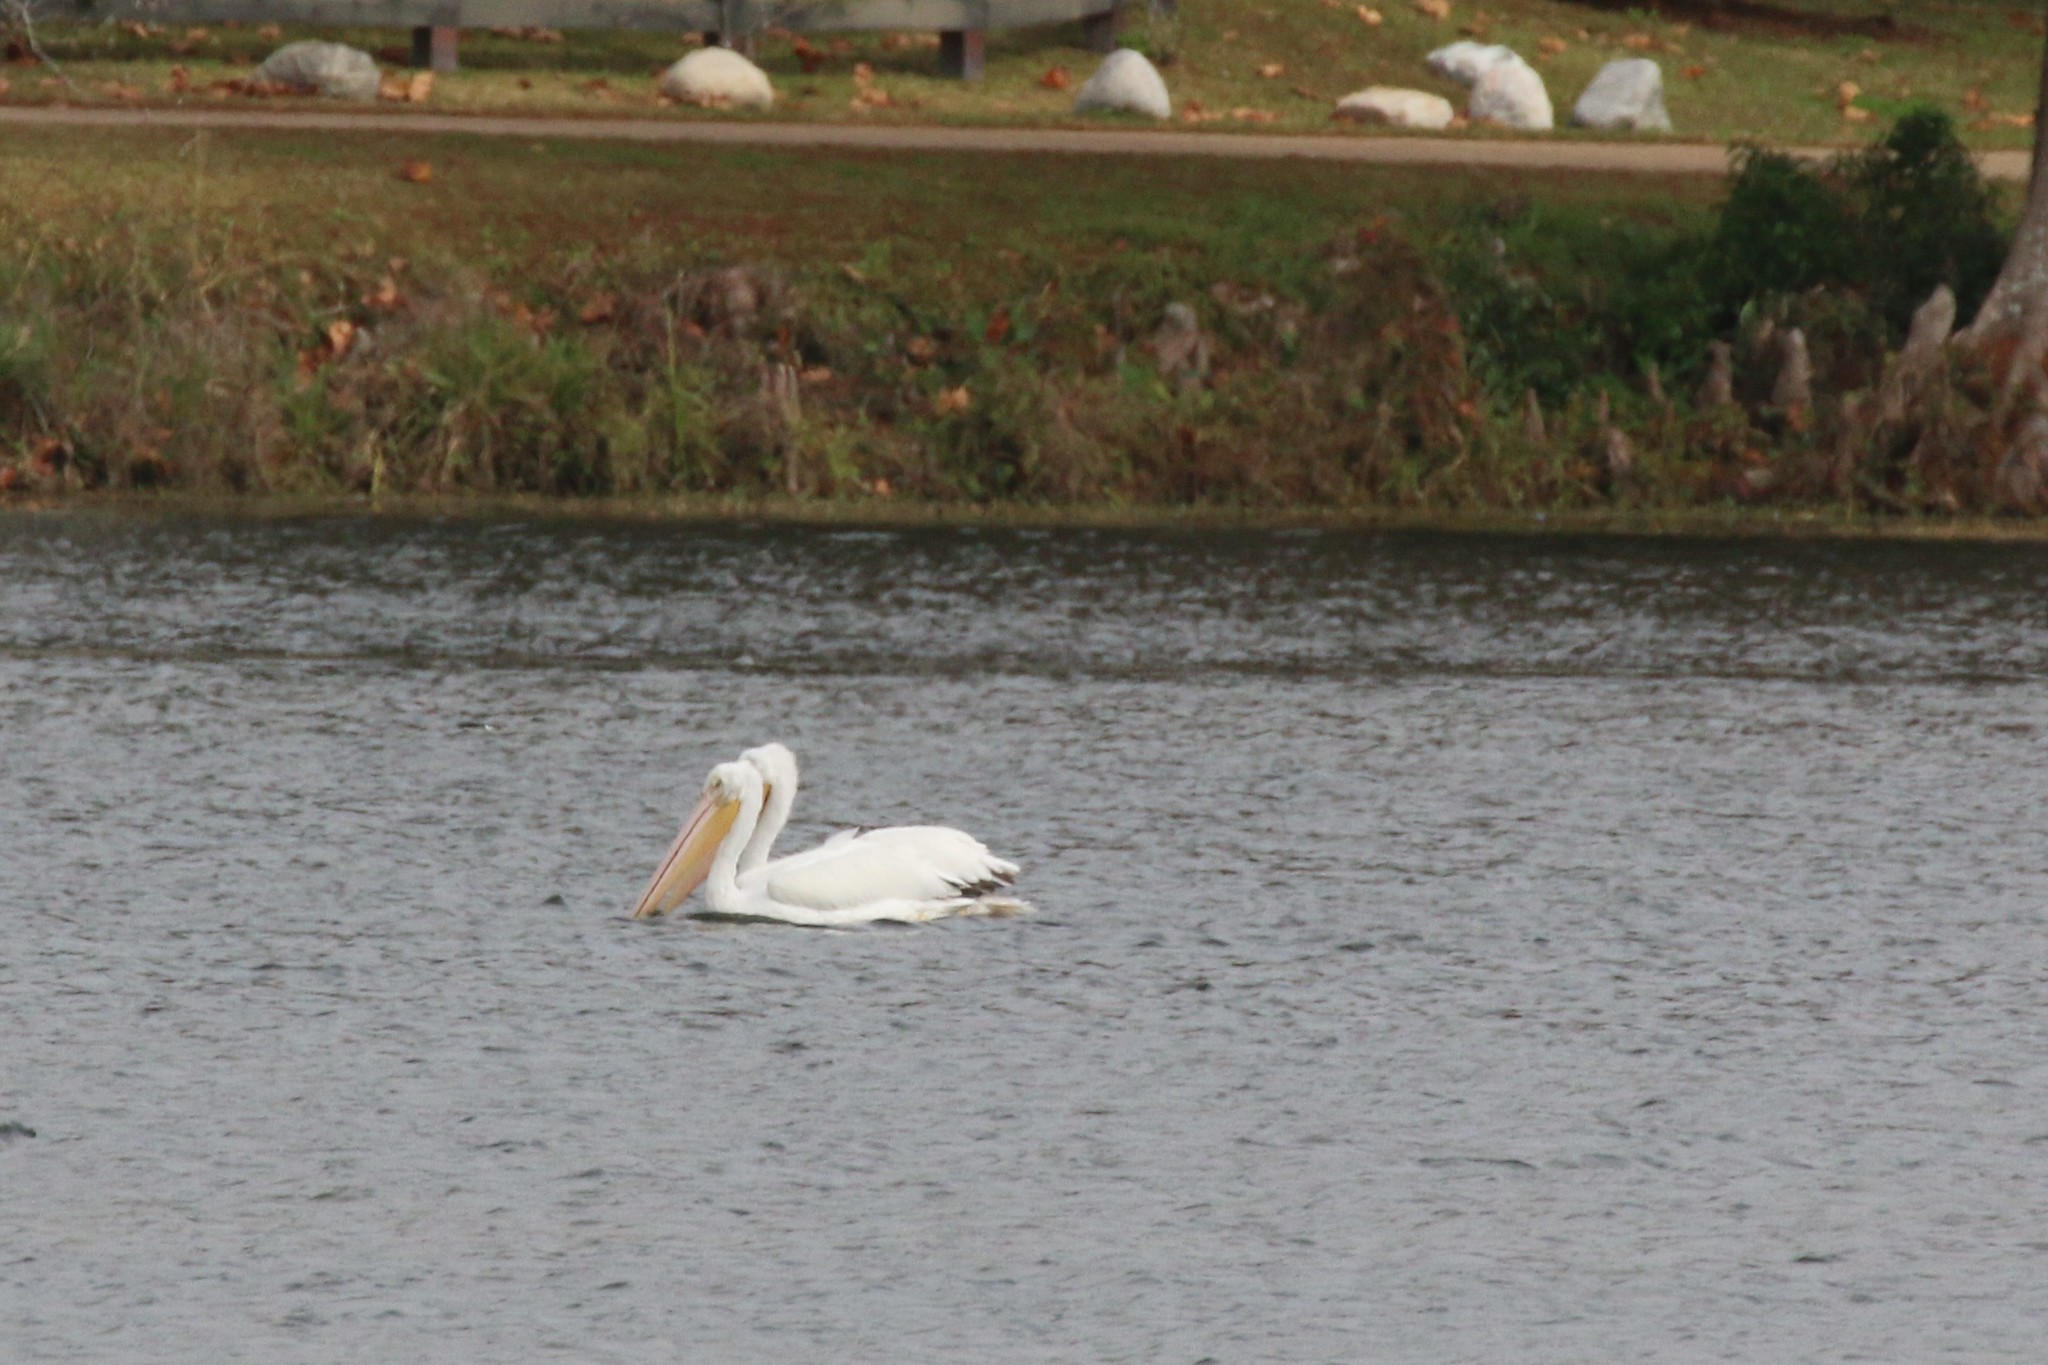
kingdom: Animalia
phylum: Chordata
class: Aves
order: Pelecaniformes
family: Pelecanidae
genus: Pelecanus
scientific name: Pelecanus erythrorhynchos
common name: American white pelican
